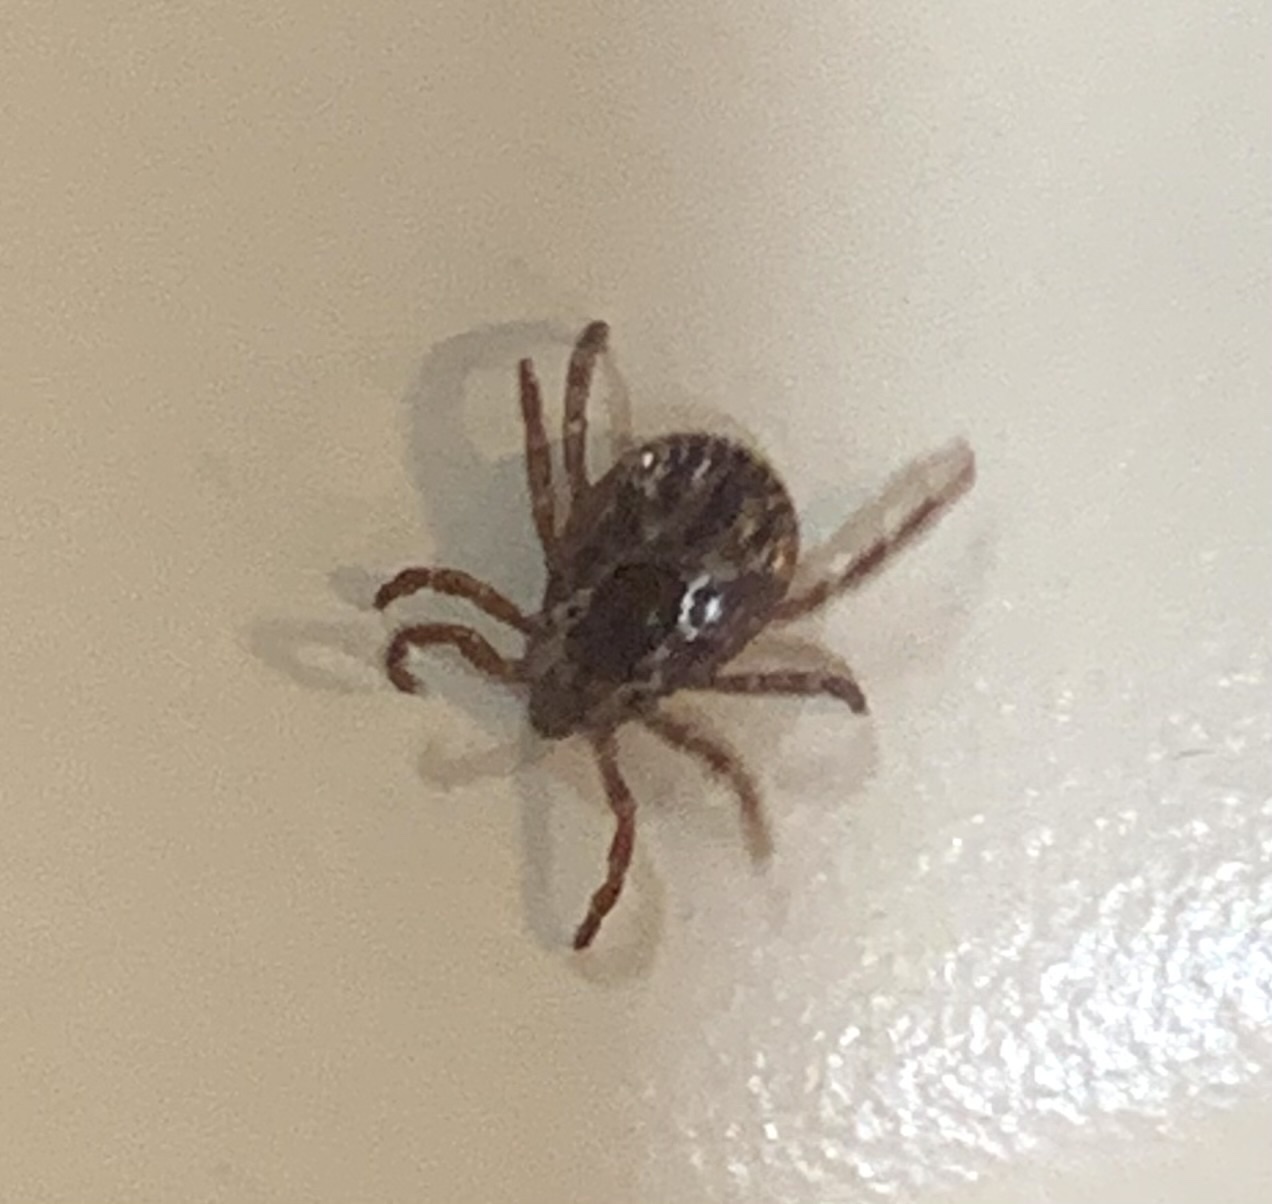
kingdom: Animalia
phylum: Arthropoda
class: Arachnida
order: Ixodida
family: Ixodidae
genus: Dermacentor
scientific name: Dermacentor variabilis
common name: American dog tick
